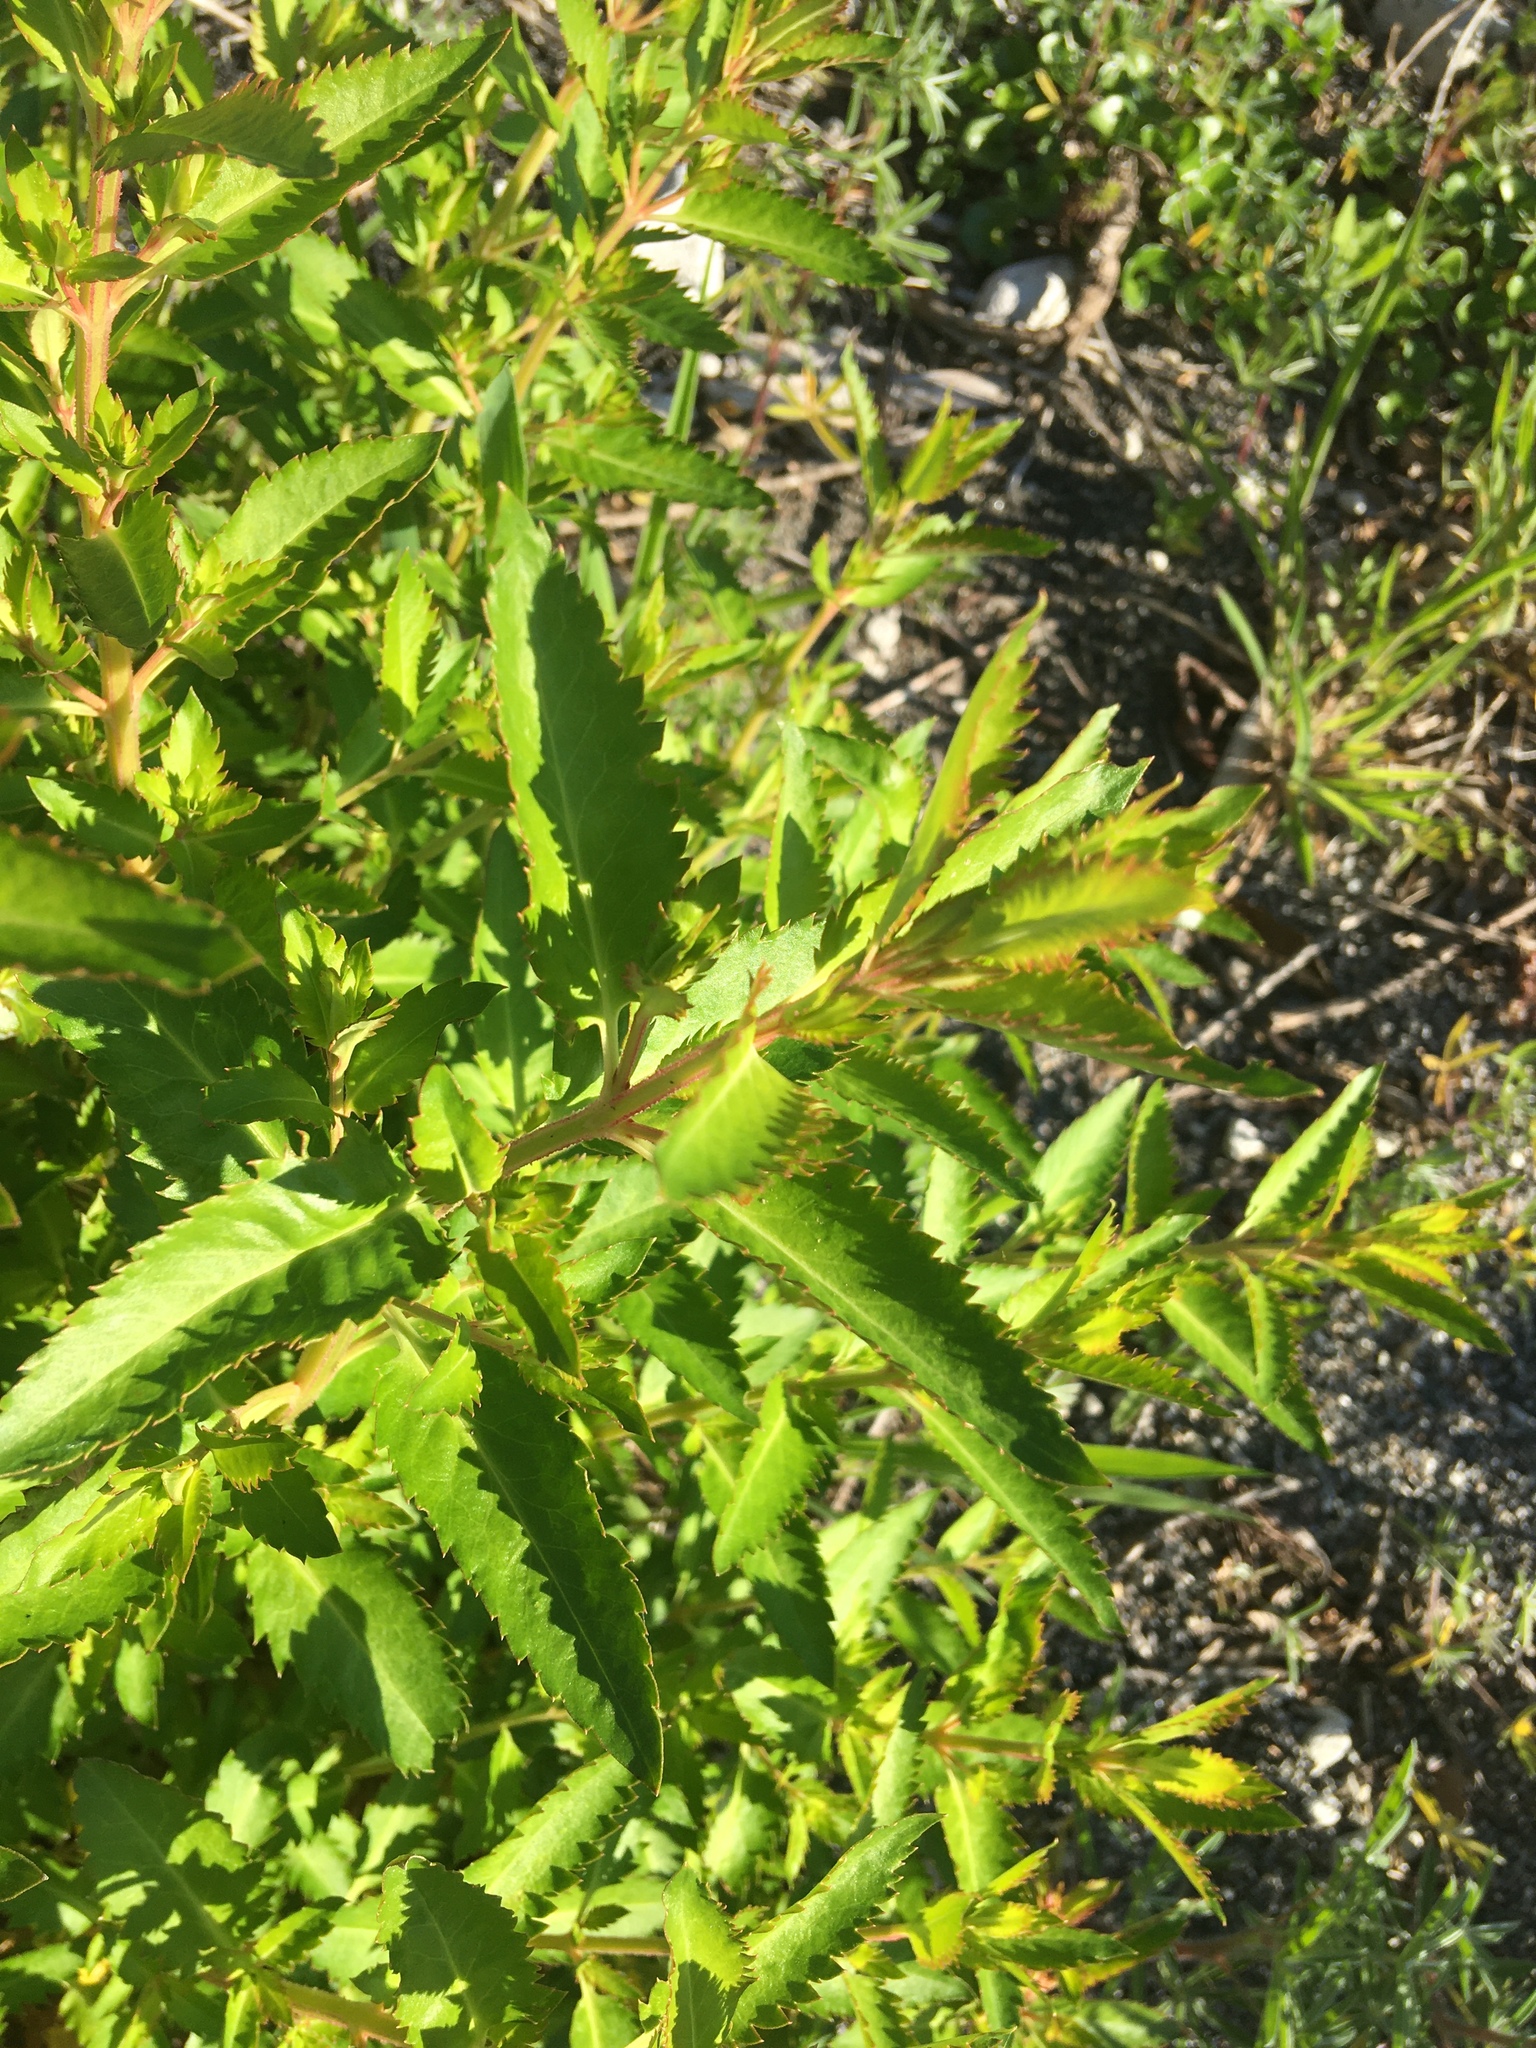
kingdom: Plantae
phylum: Tracheophyta
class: Magnoliopsida
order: Saxifragales
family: Haloragaceae
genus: Haloragis
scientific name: Haloragis erecta
